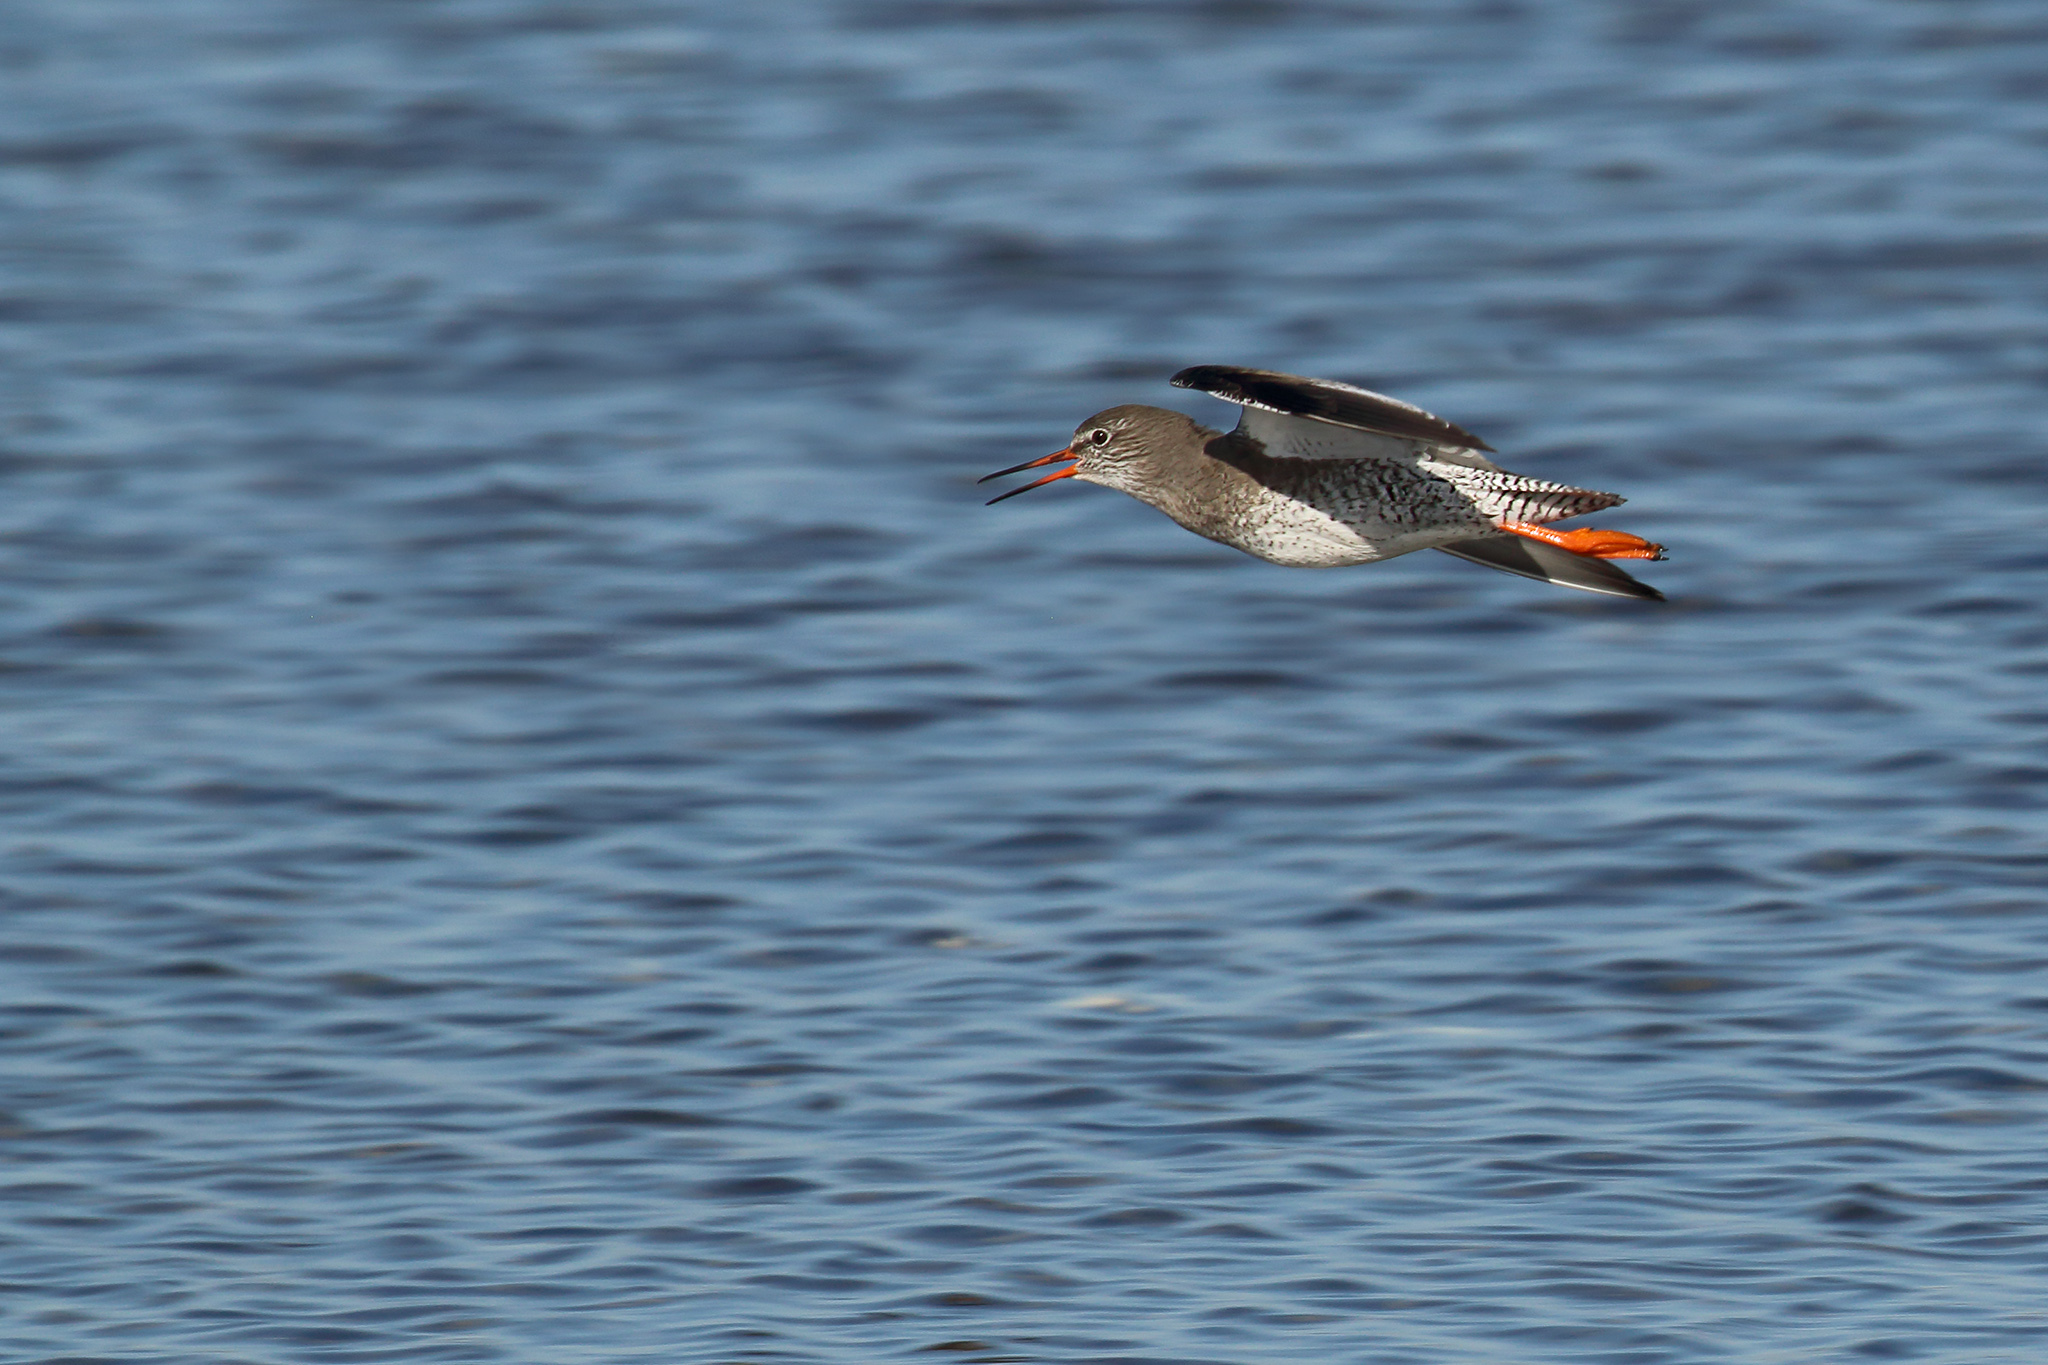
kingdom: Animalia
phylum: Chordata
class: Aves
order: Charadriiformes
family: Scolopacidae
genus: Tringa
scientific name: Tringa totanus
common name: Common redshank
